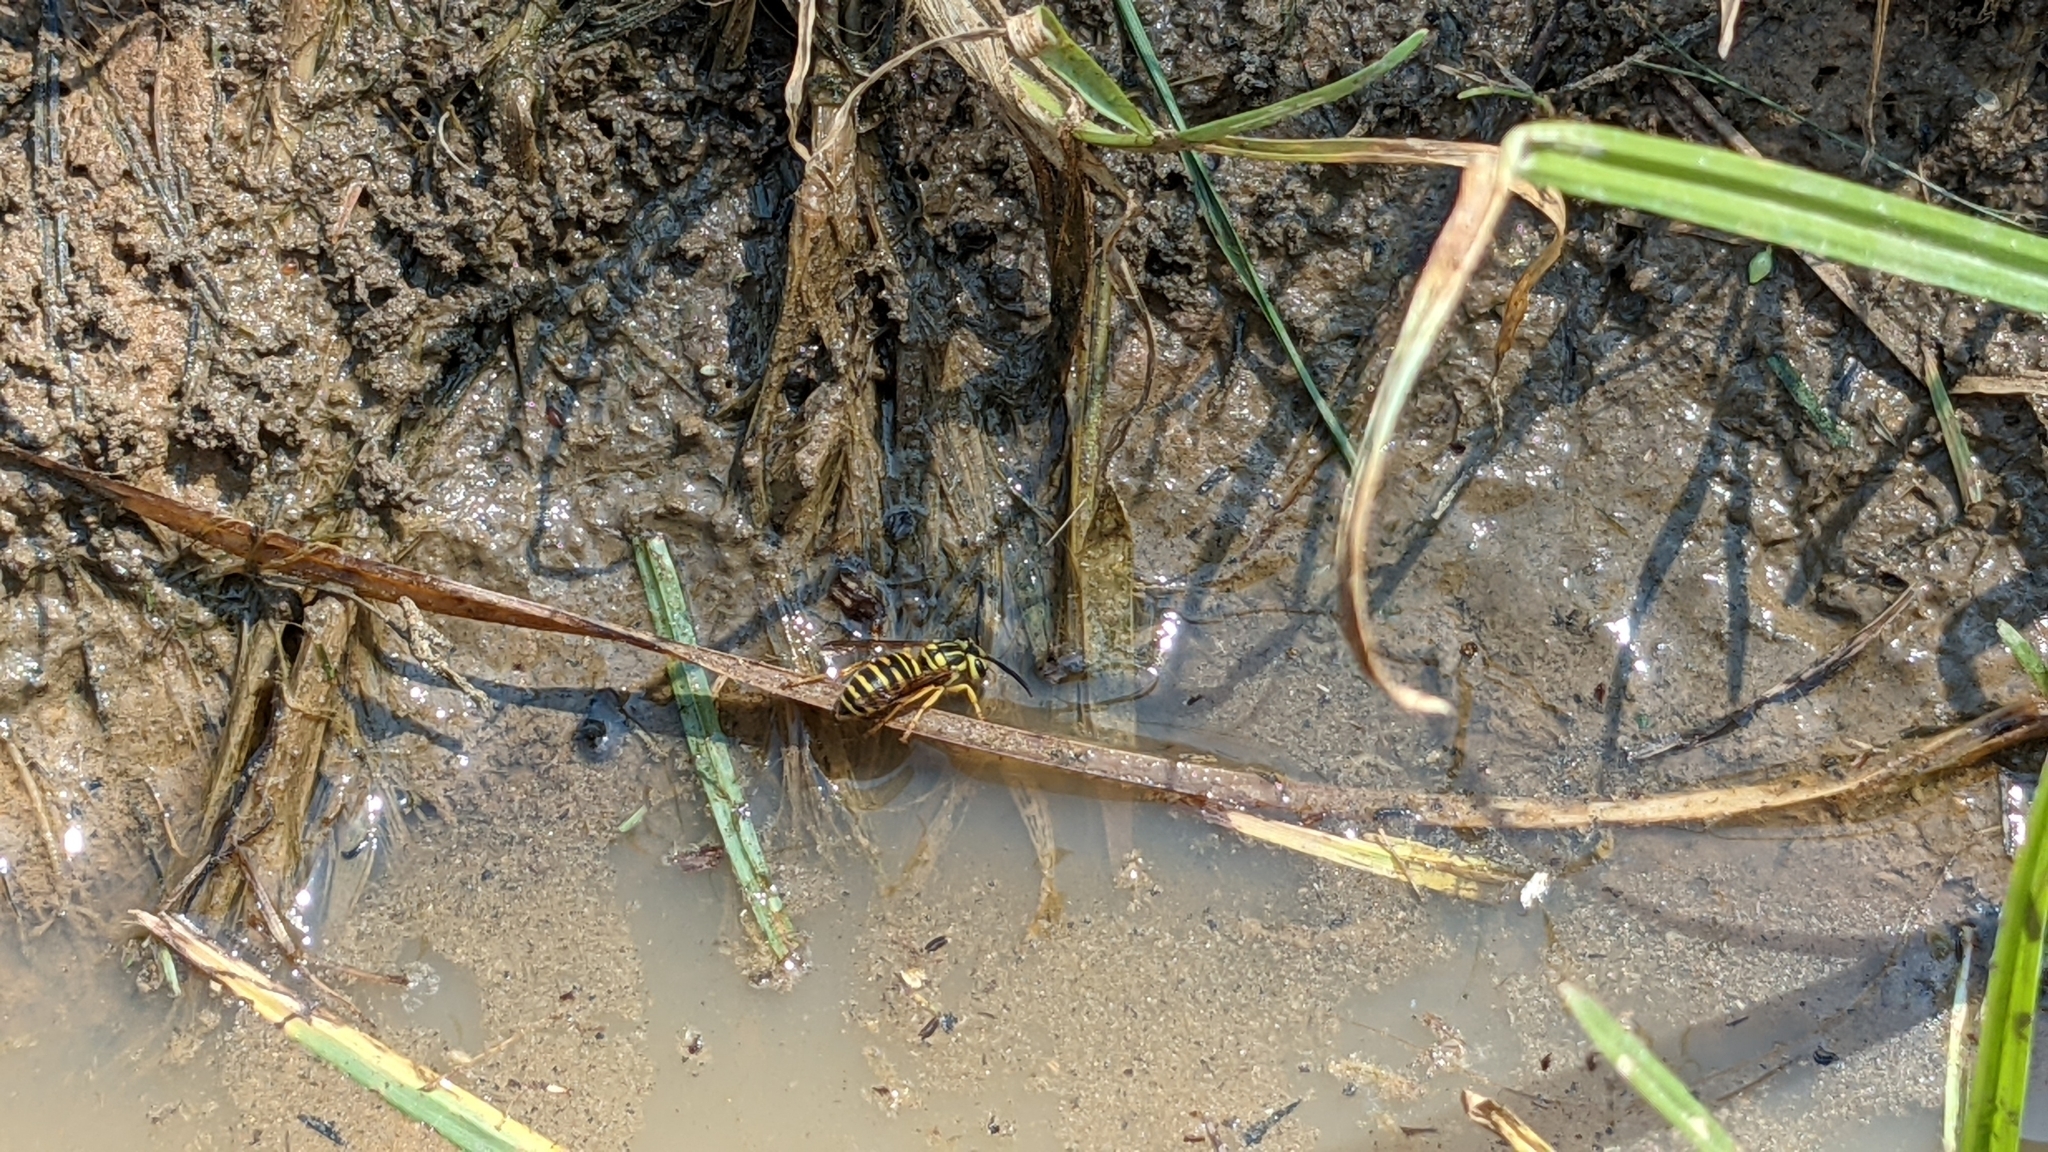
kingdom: Animalia
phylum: Arthropoda
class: Insecta
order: Hymenoptera
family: Vespidae
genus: Vespula
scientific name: Vespula squamosa
